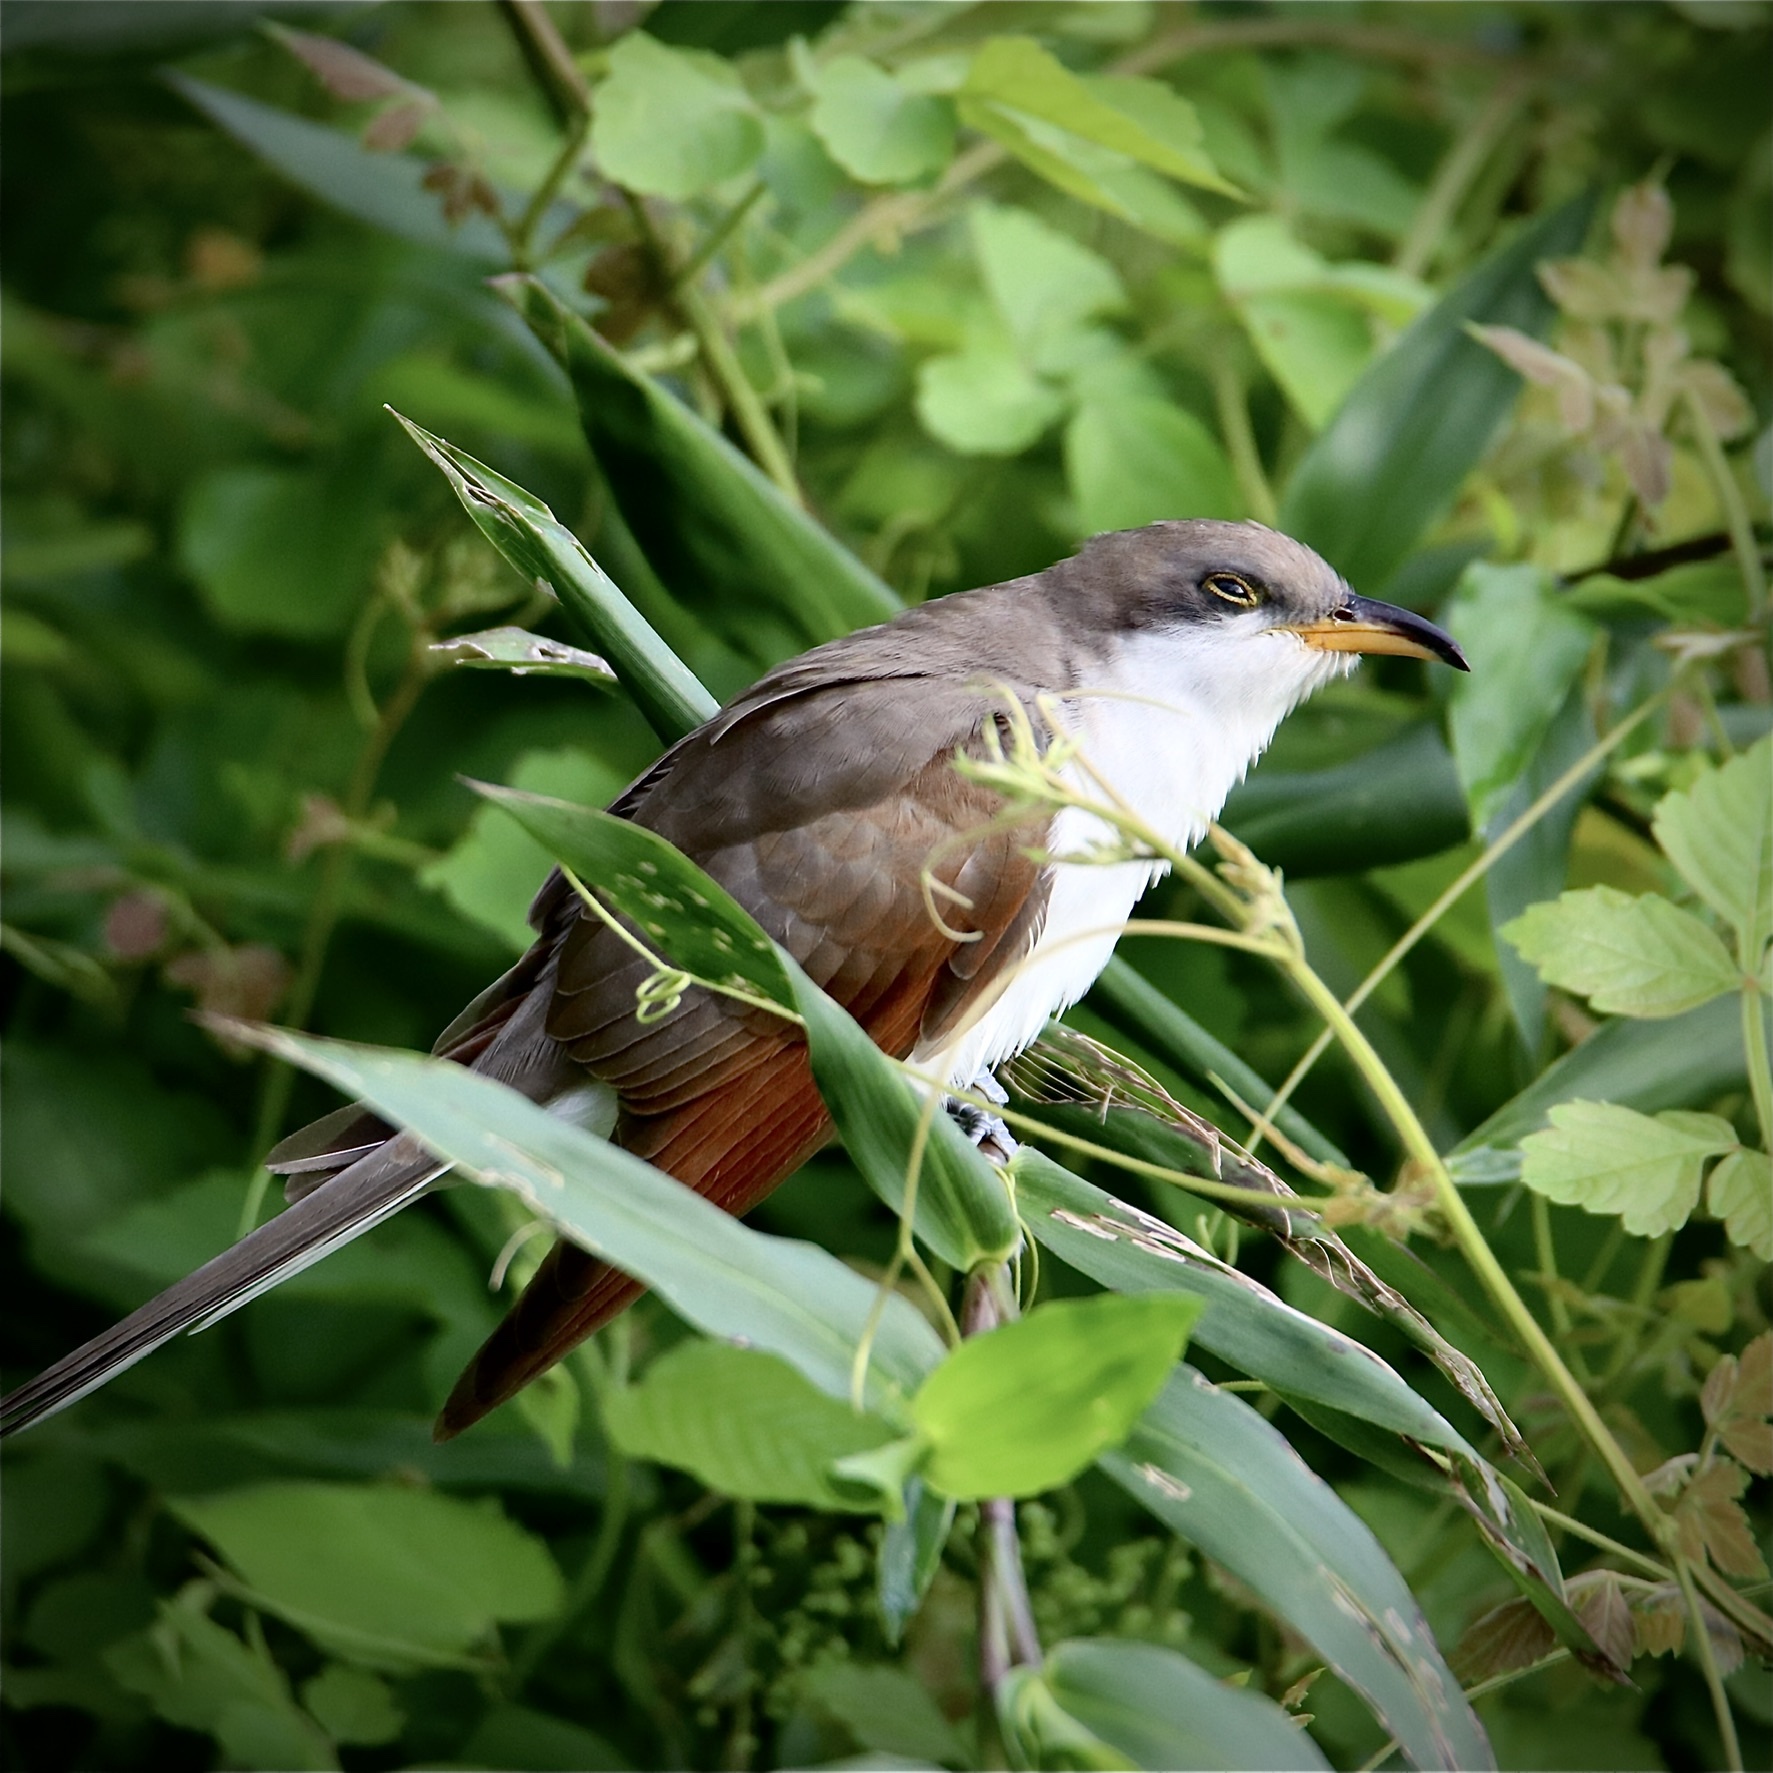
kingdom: Animalia
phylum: Chordata
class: Aves
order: Cuculiformes
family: Cuculidae
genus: Coccyzus
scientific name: Coccyzus americanus
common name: Yellow-billed cuckoo
